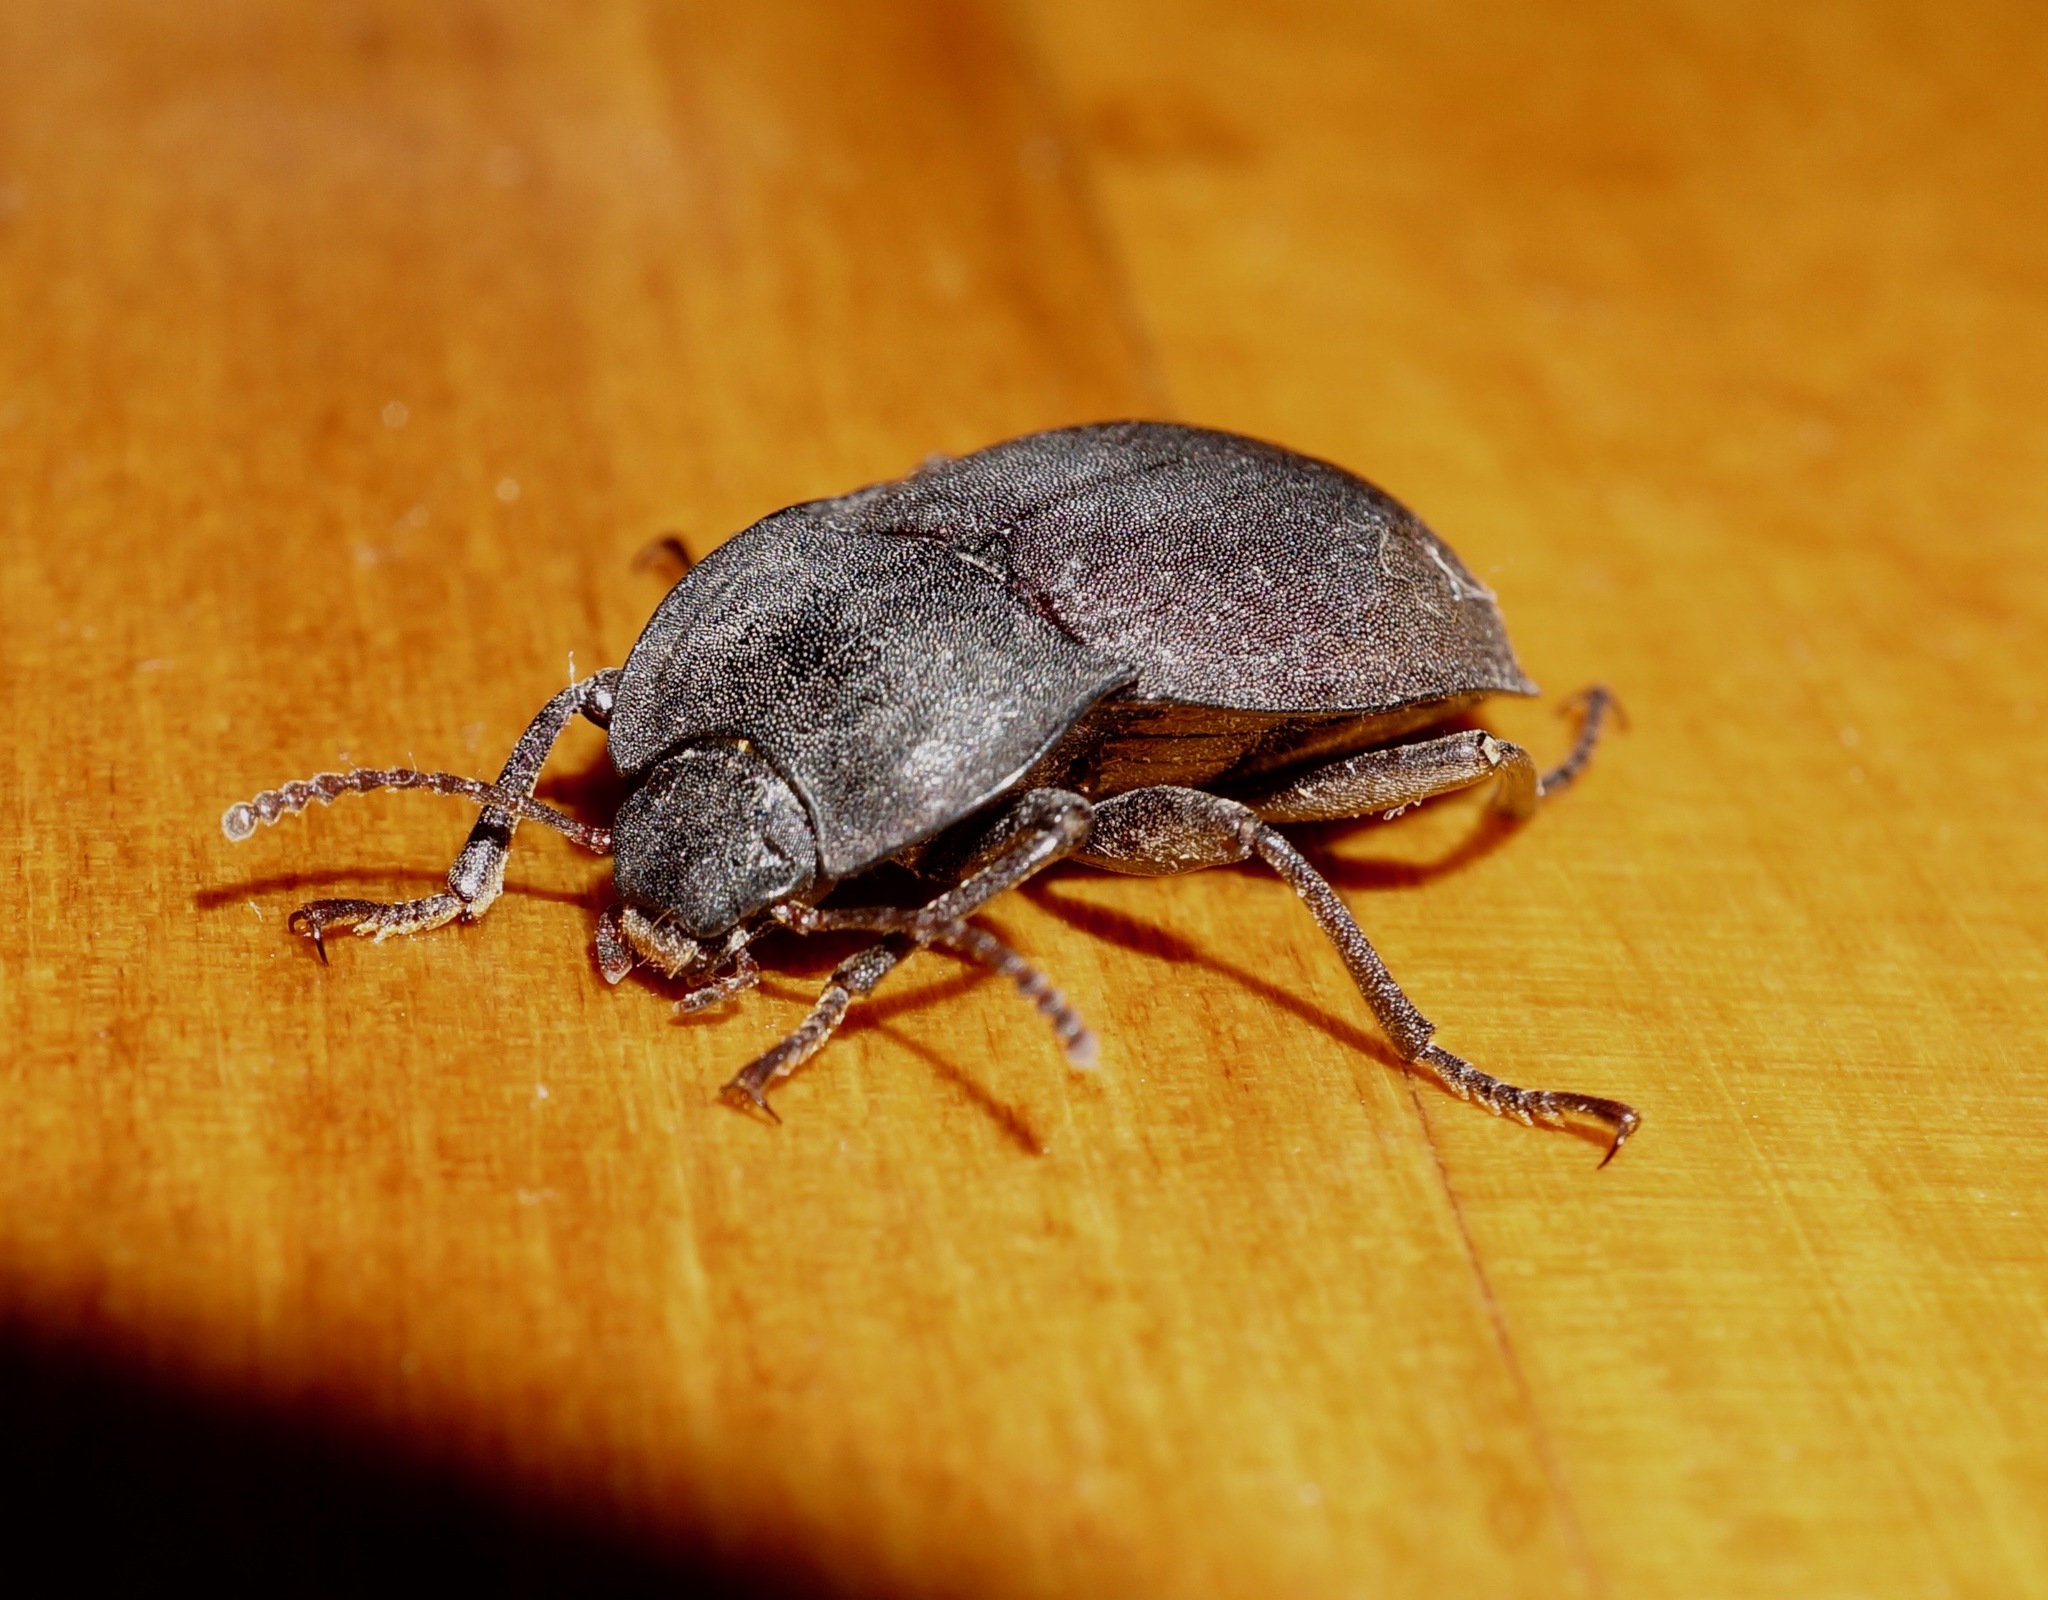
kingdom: Animalia
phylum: Arthropoda
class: Insecta
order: Coleoptera
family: Tenebrionidae
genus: Mimopeus
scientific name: Mimopeus
